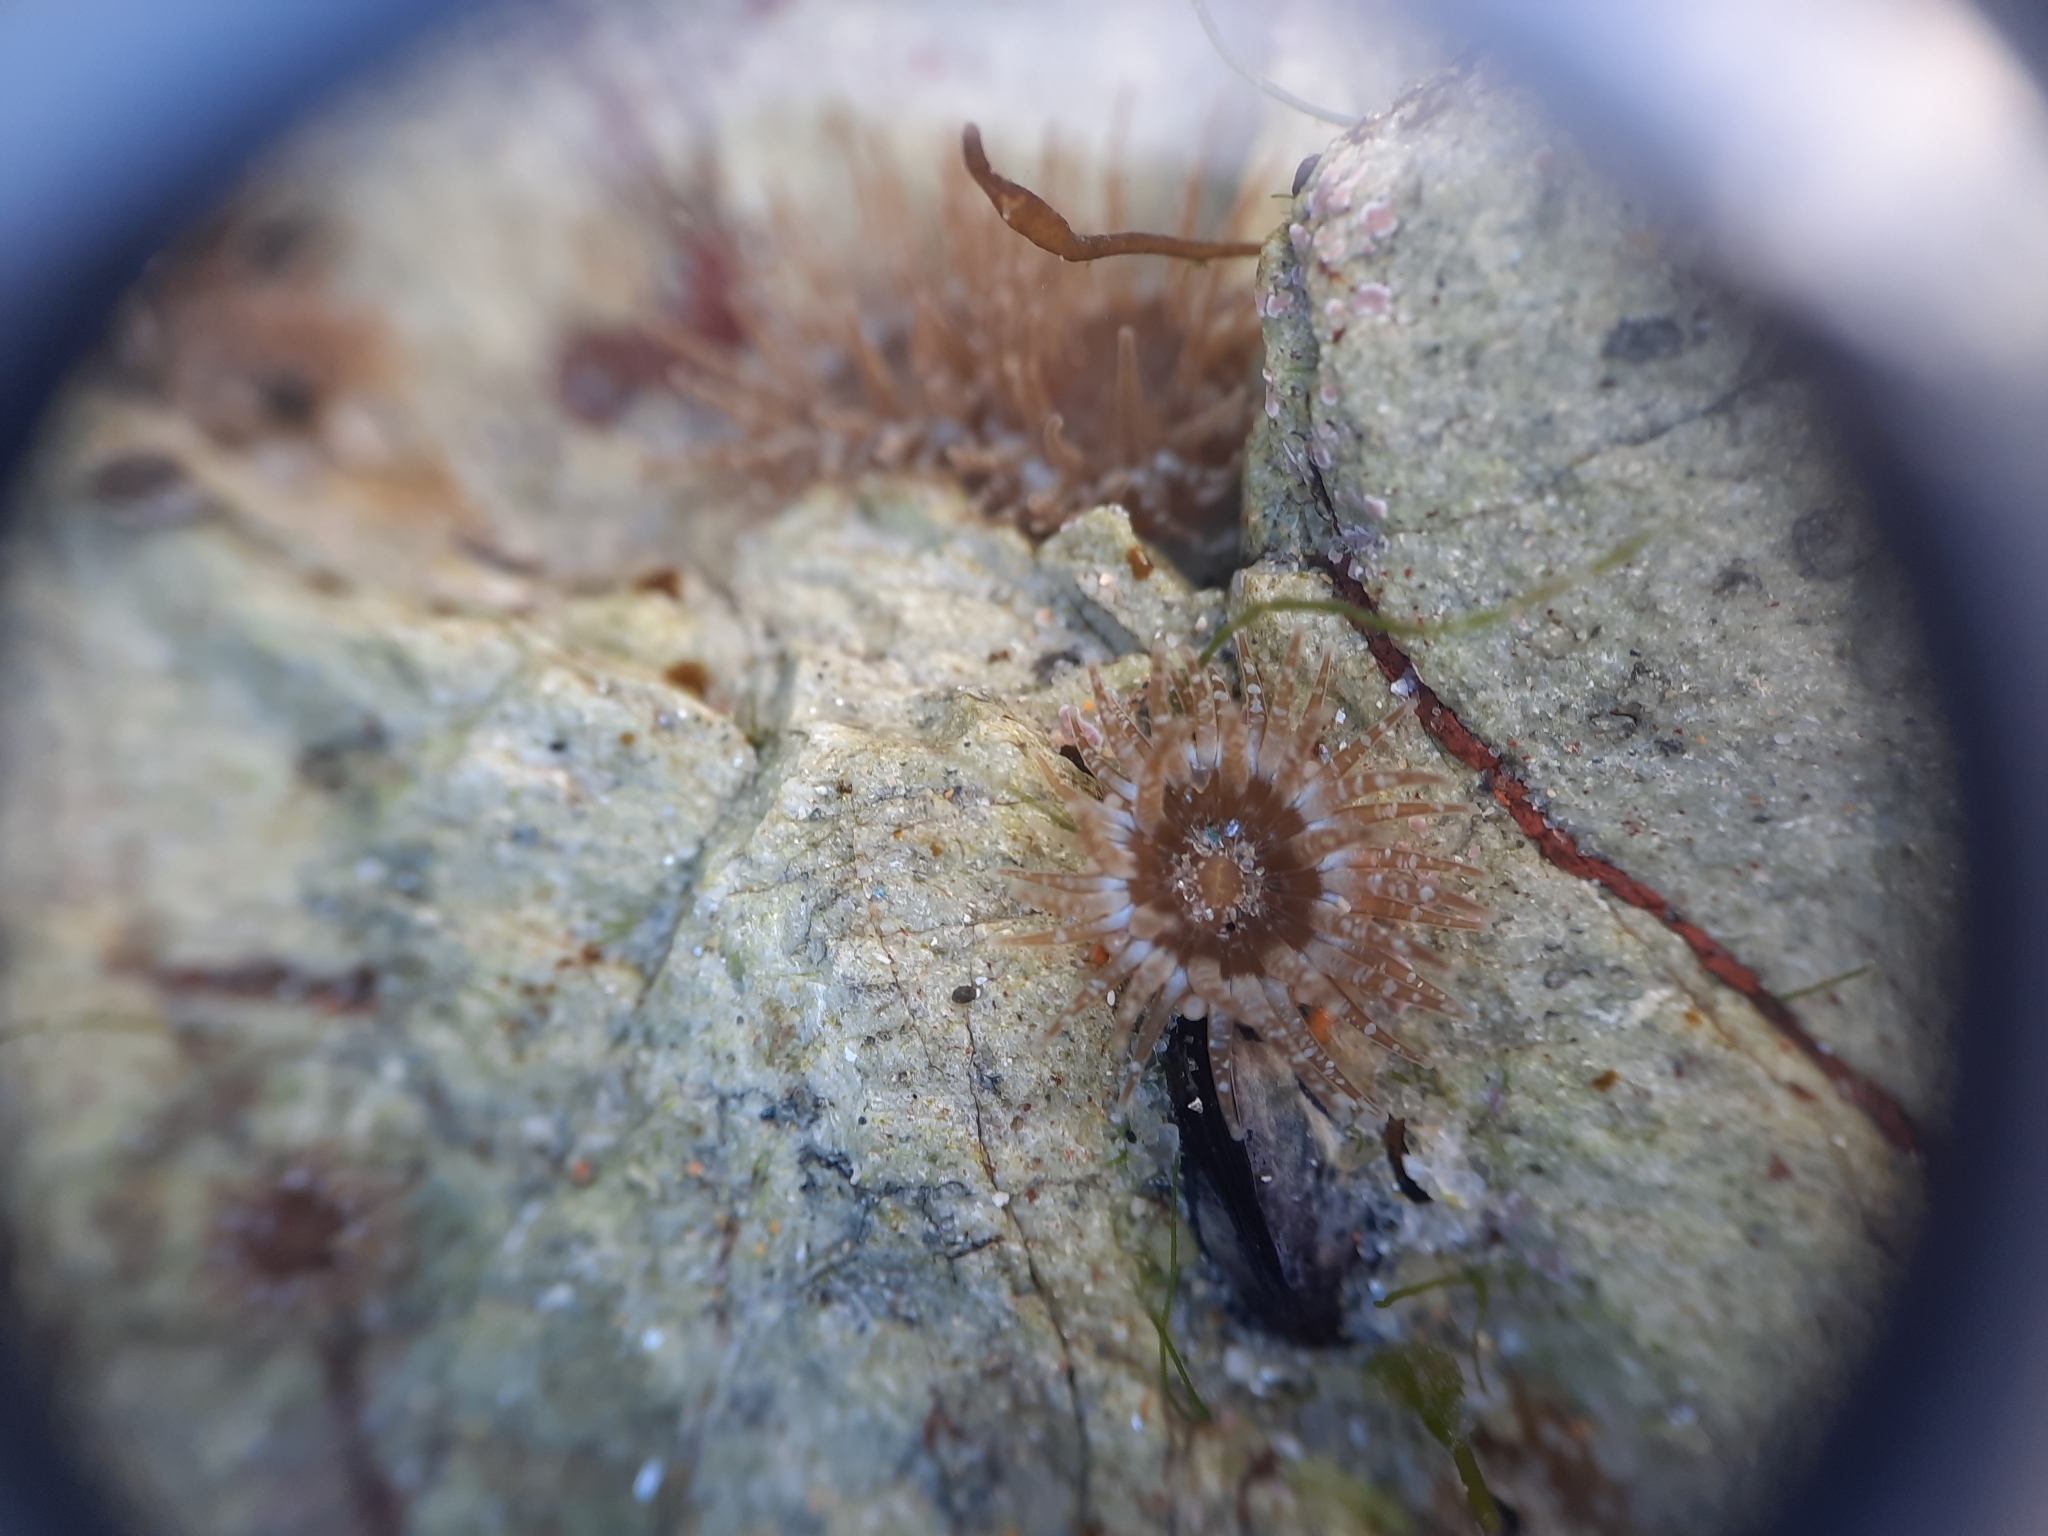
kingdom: Animalia
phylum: Cnidaria
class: Anthozoa
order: Actiniaria
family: Actiniidae
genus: Anthopleura
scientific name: Anthopleura hermaphroditica
